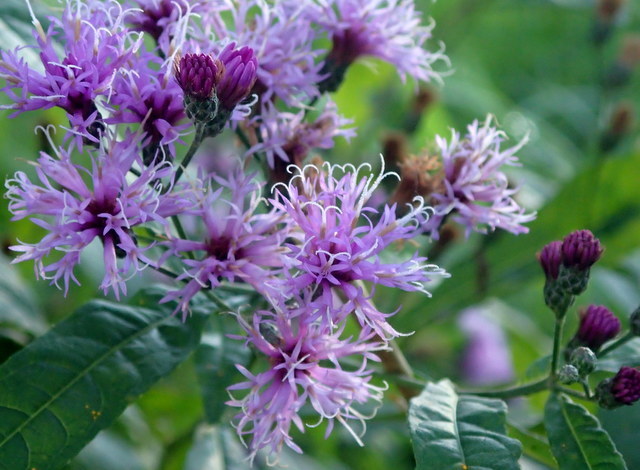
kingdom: Plantae
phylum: Tracheophyta
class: Magnoliopsida
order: Asterales
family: Asteraceae
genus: Vernonia
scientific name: Vernonia gigantea
